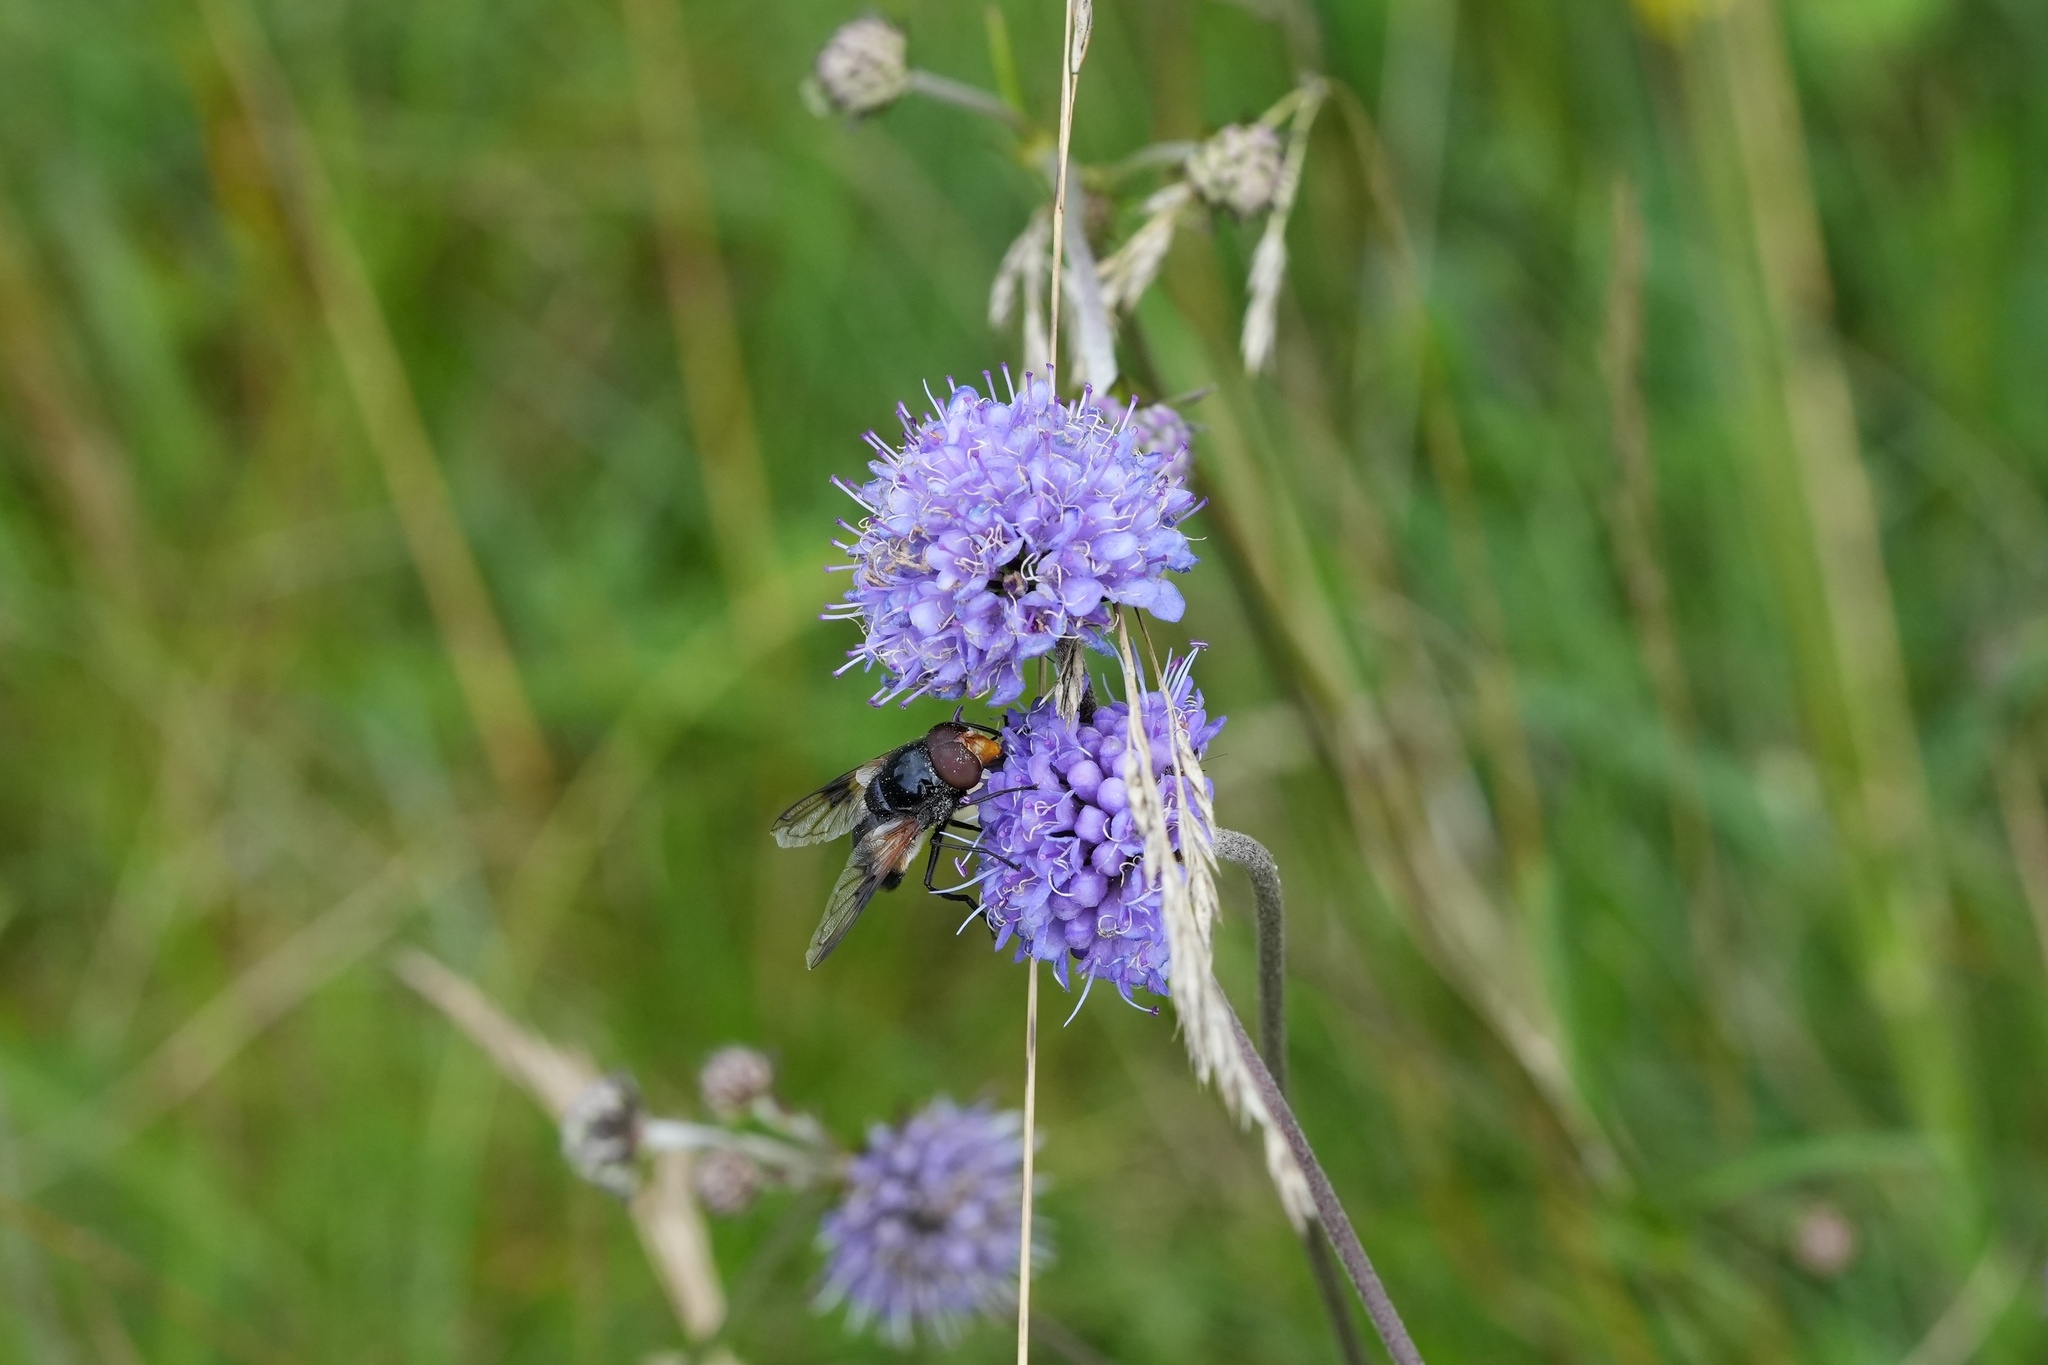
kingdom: Animalia
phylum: Arthropoda
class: Insecta
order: Diptera
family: Syrphidae
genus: Volucella
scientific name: Volucella pellucens
